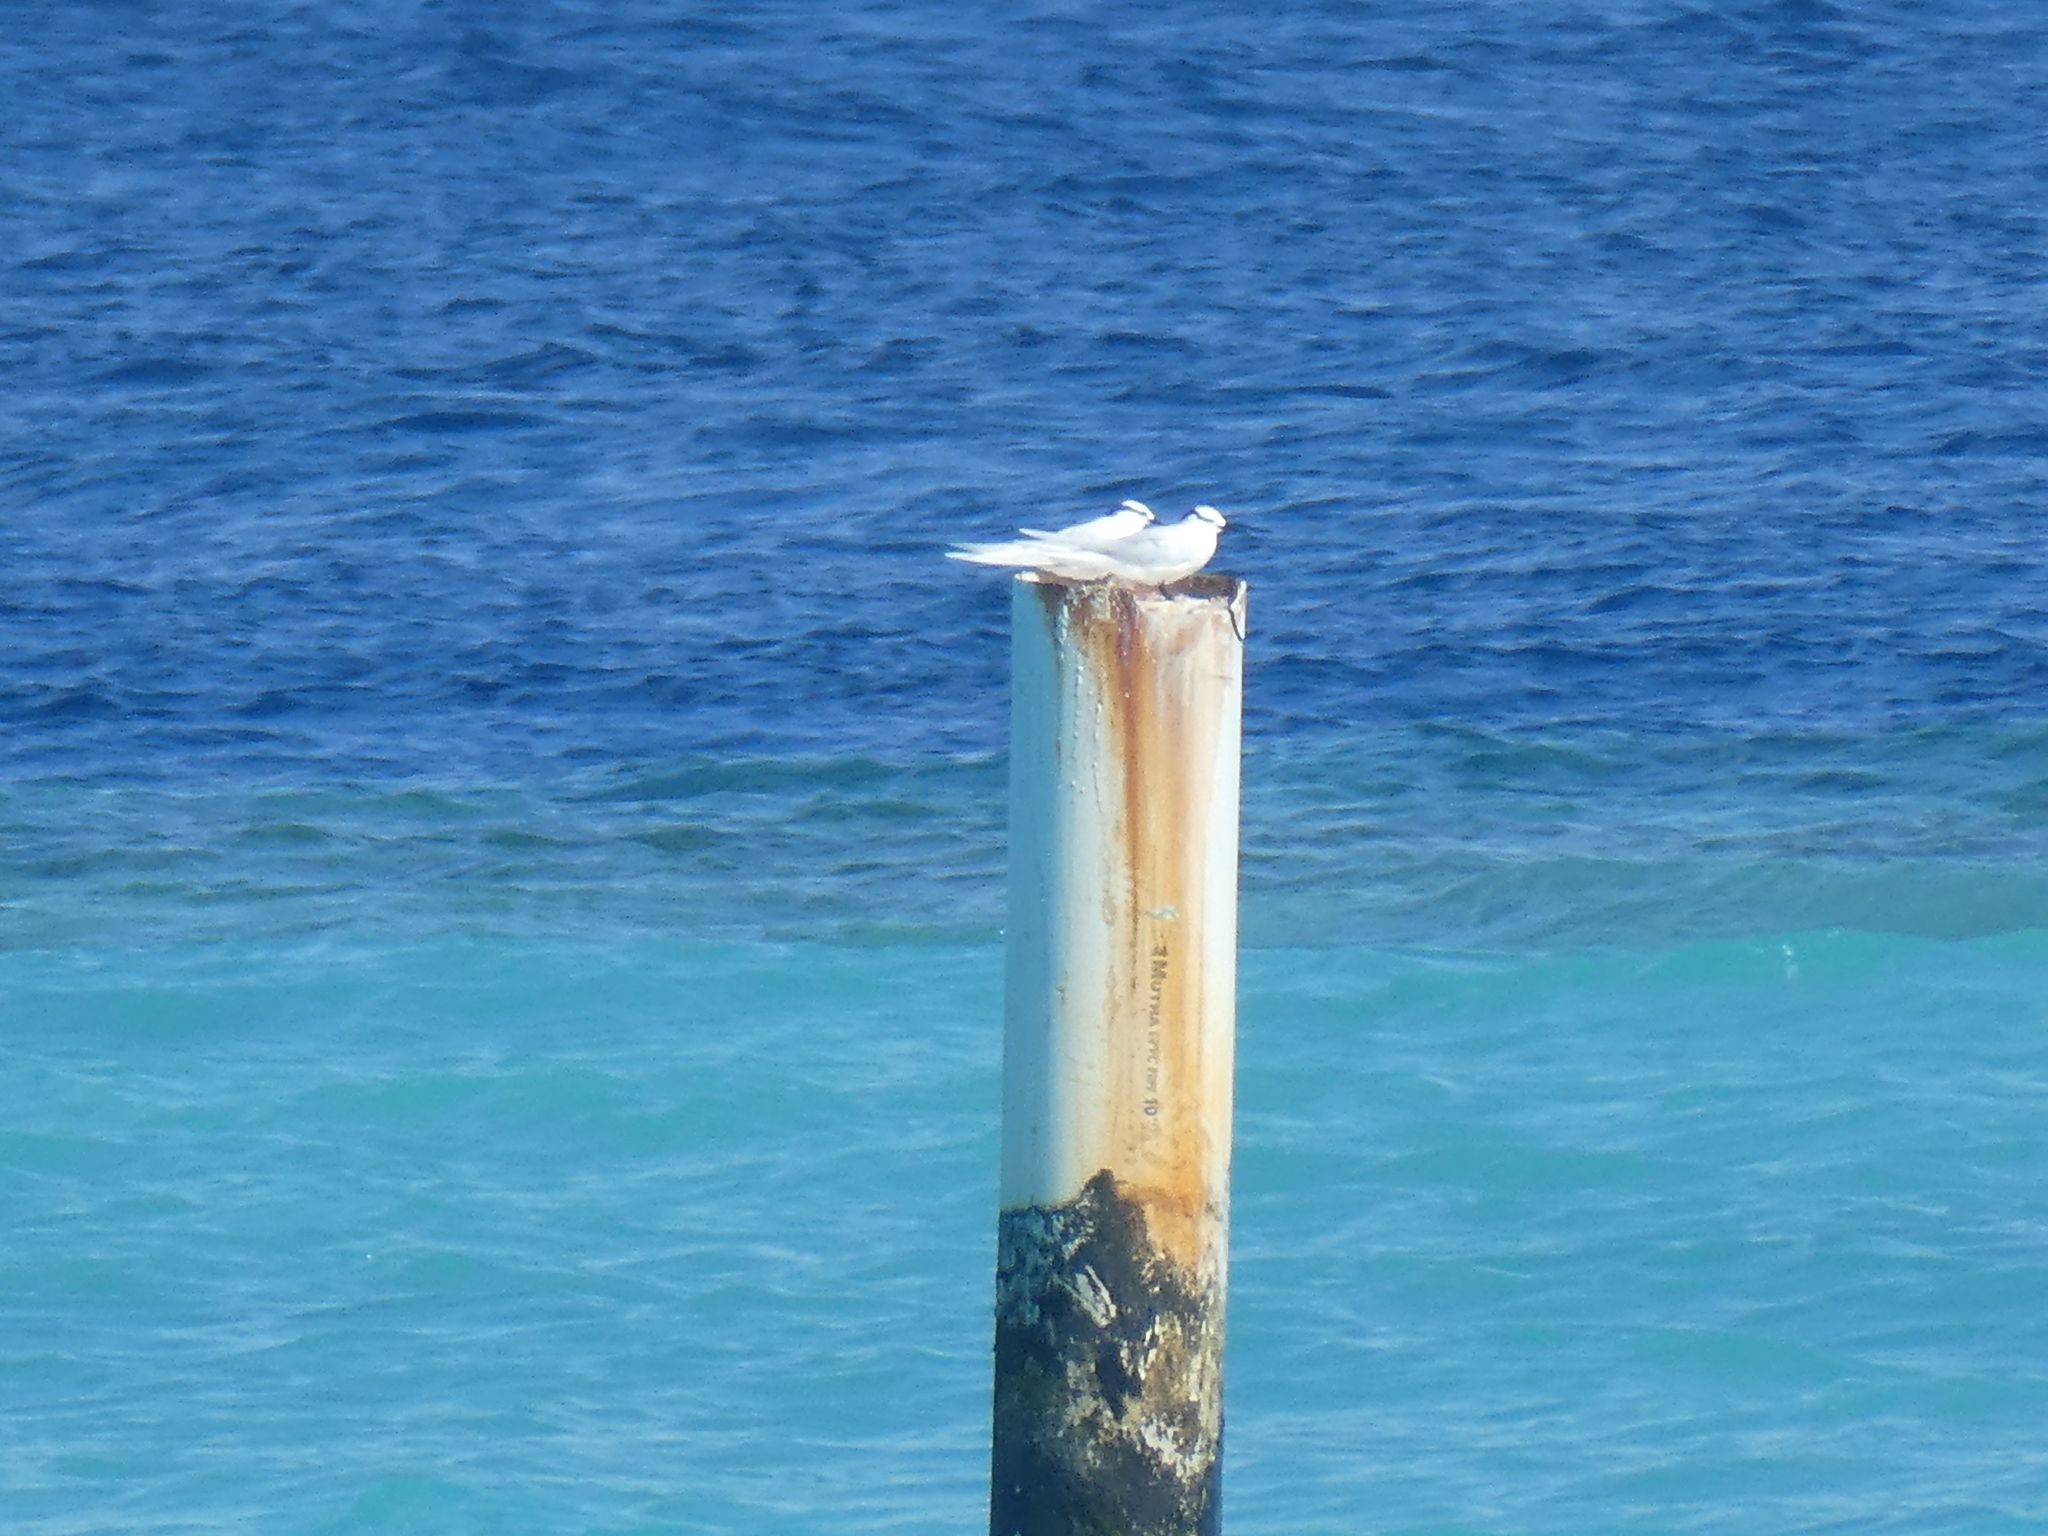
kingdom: Animalia
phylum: Chordata
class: Aves
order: Charadriiformes
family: Laridae
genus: Sterna
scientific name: Sterna sumatrana
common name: Black-naped tern
